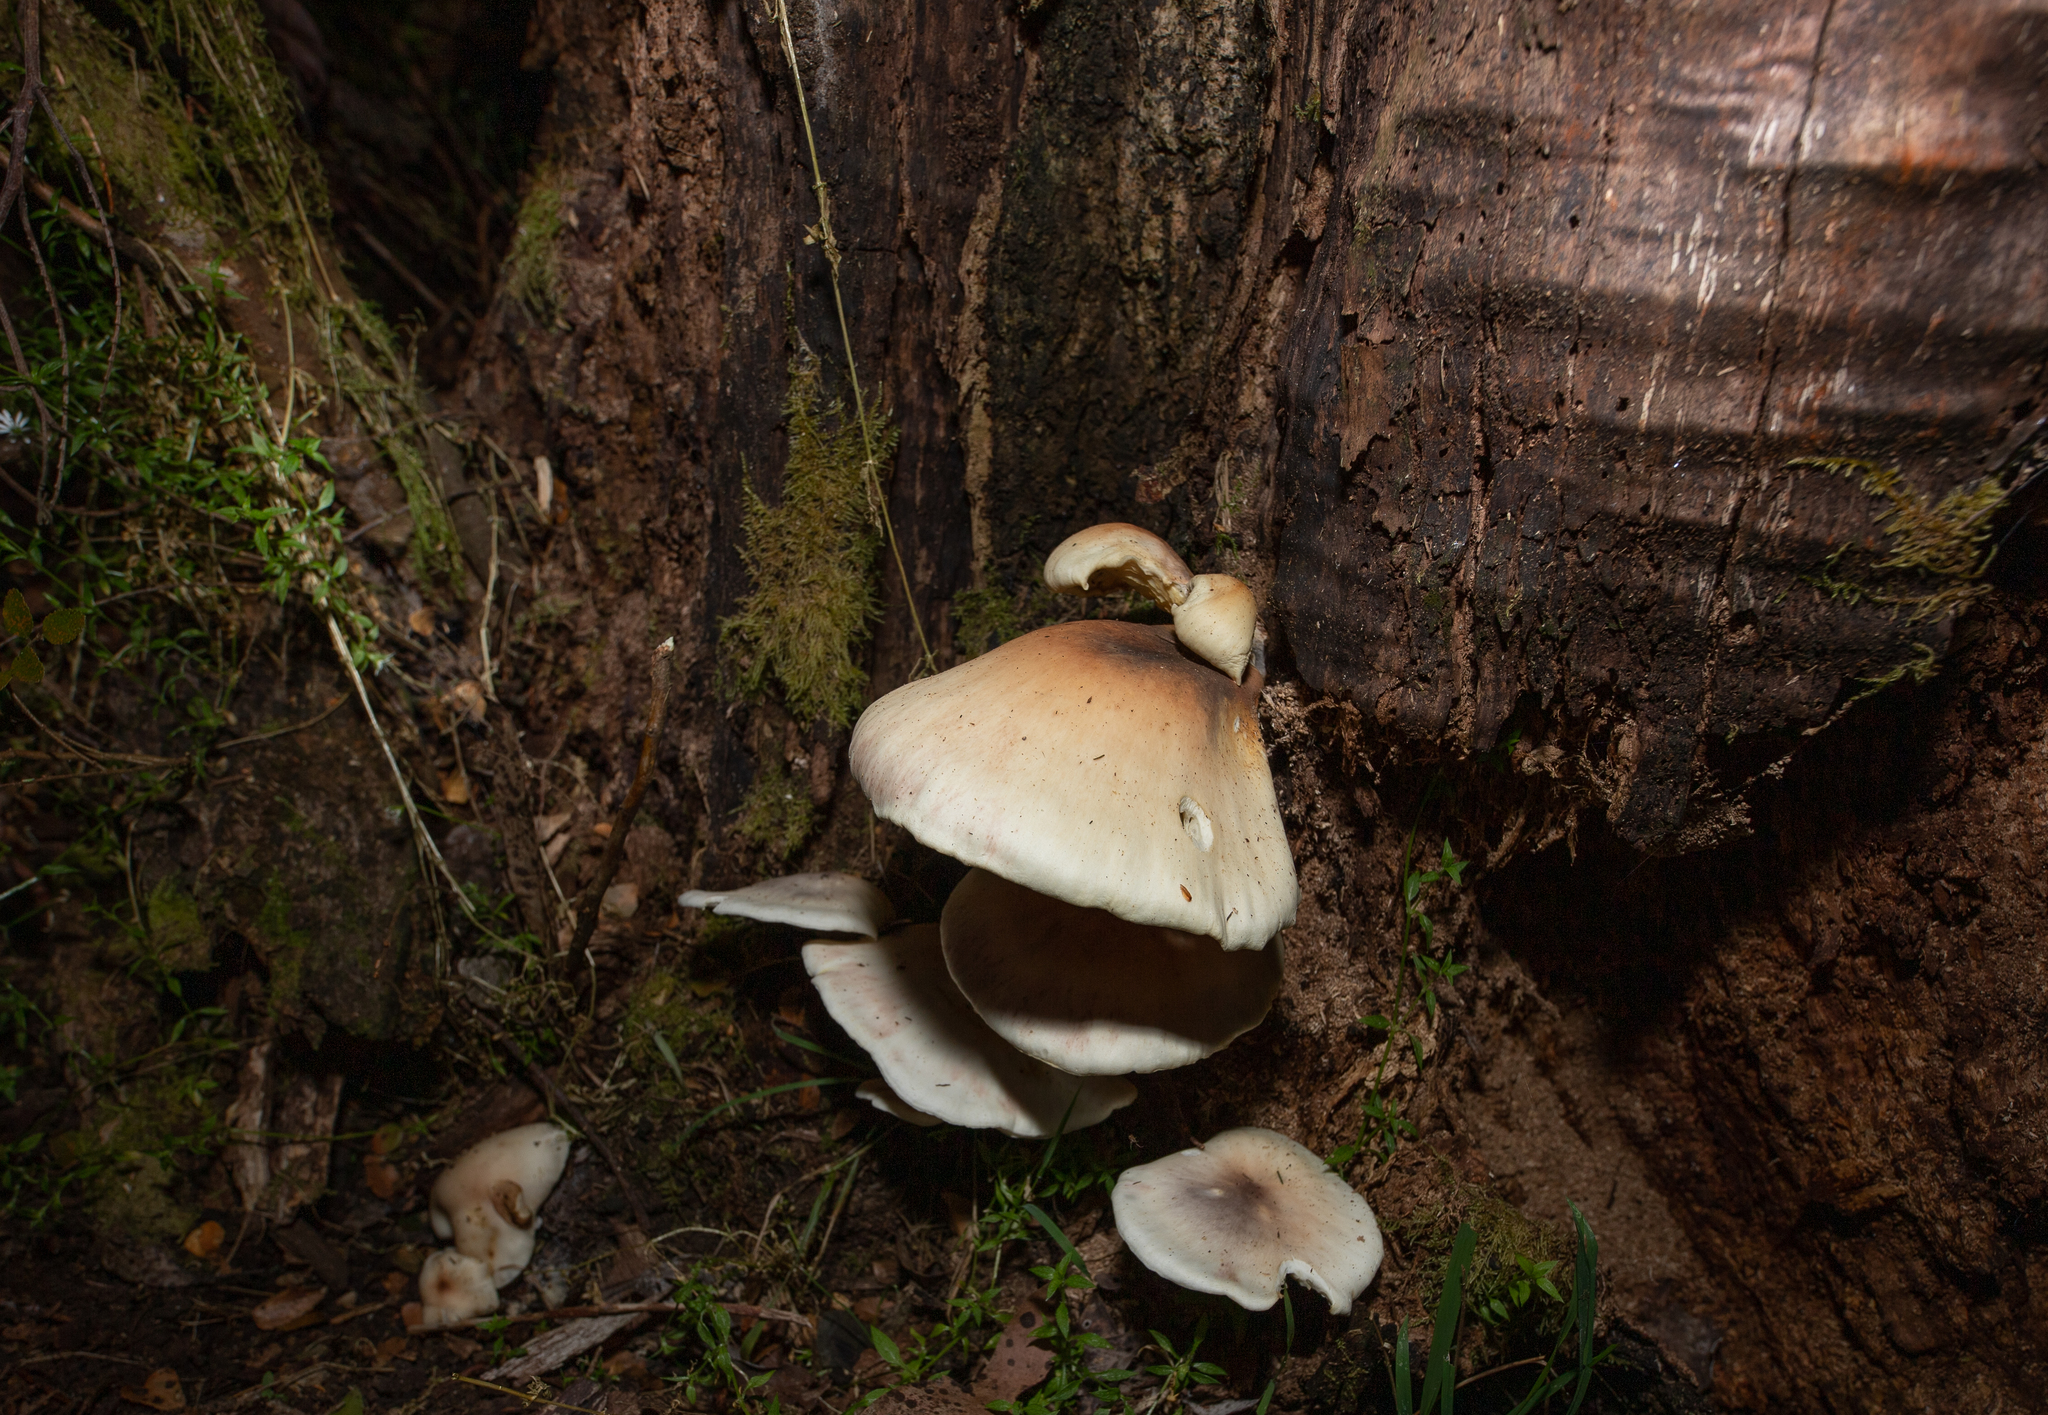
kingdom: Fungi
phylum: Basidiomycota
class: Agaricomycetes
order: Agaricales
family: Omphalotaceae
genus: Omphalotus
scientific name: Omphalotus nidiformis
